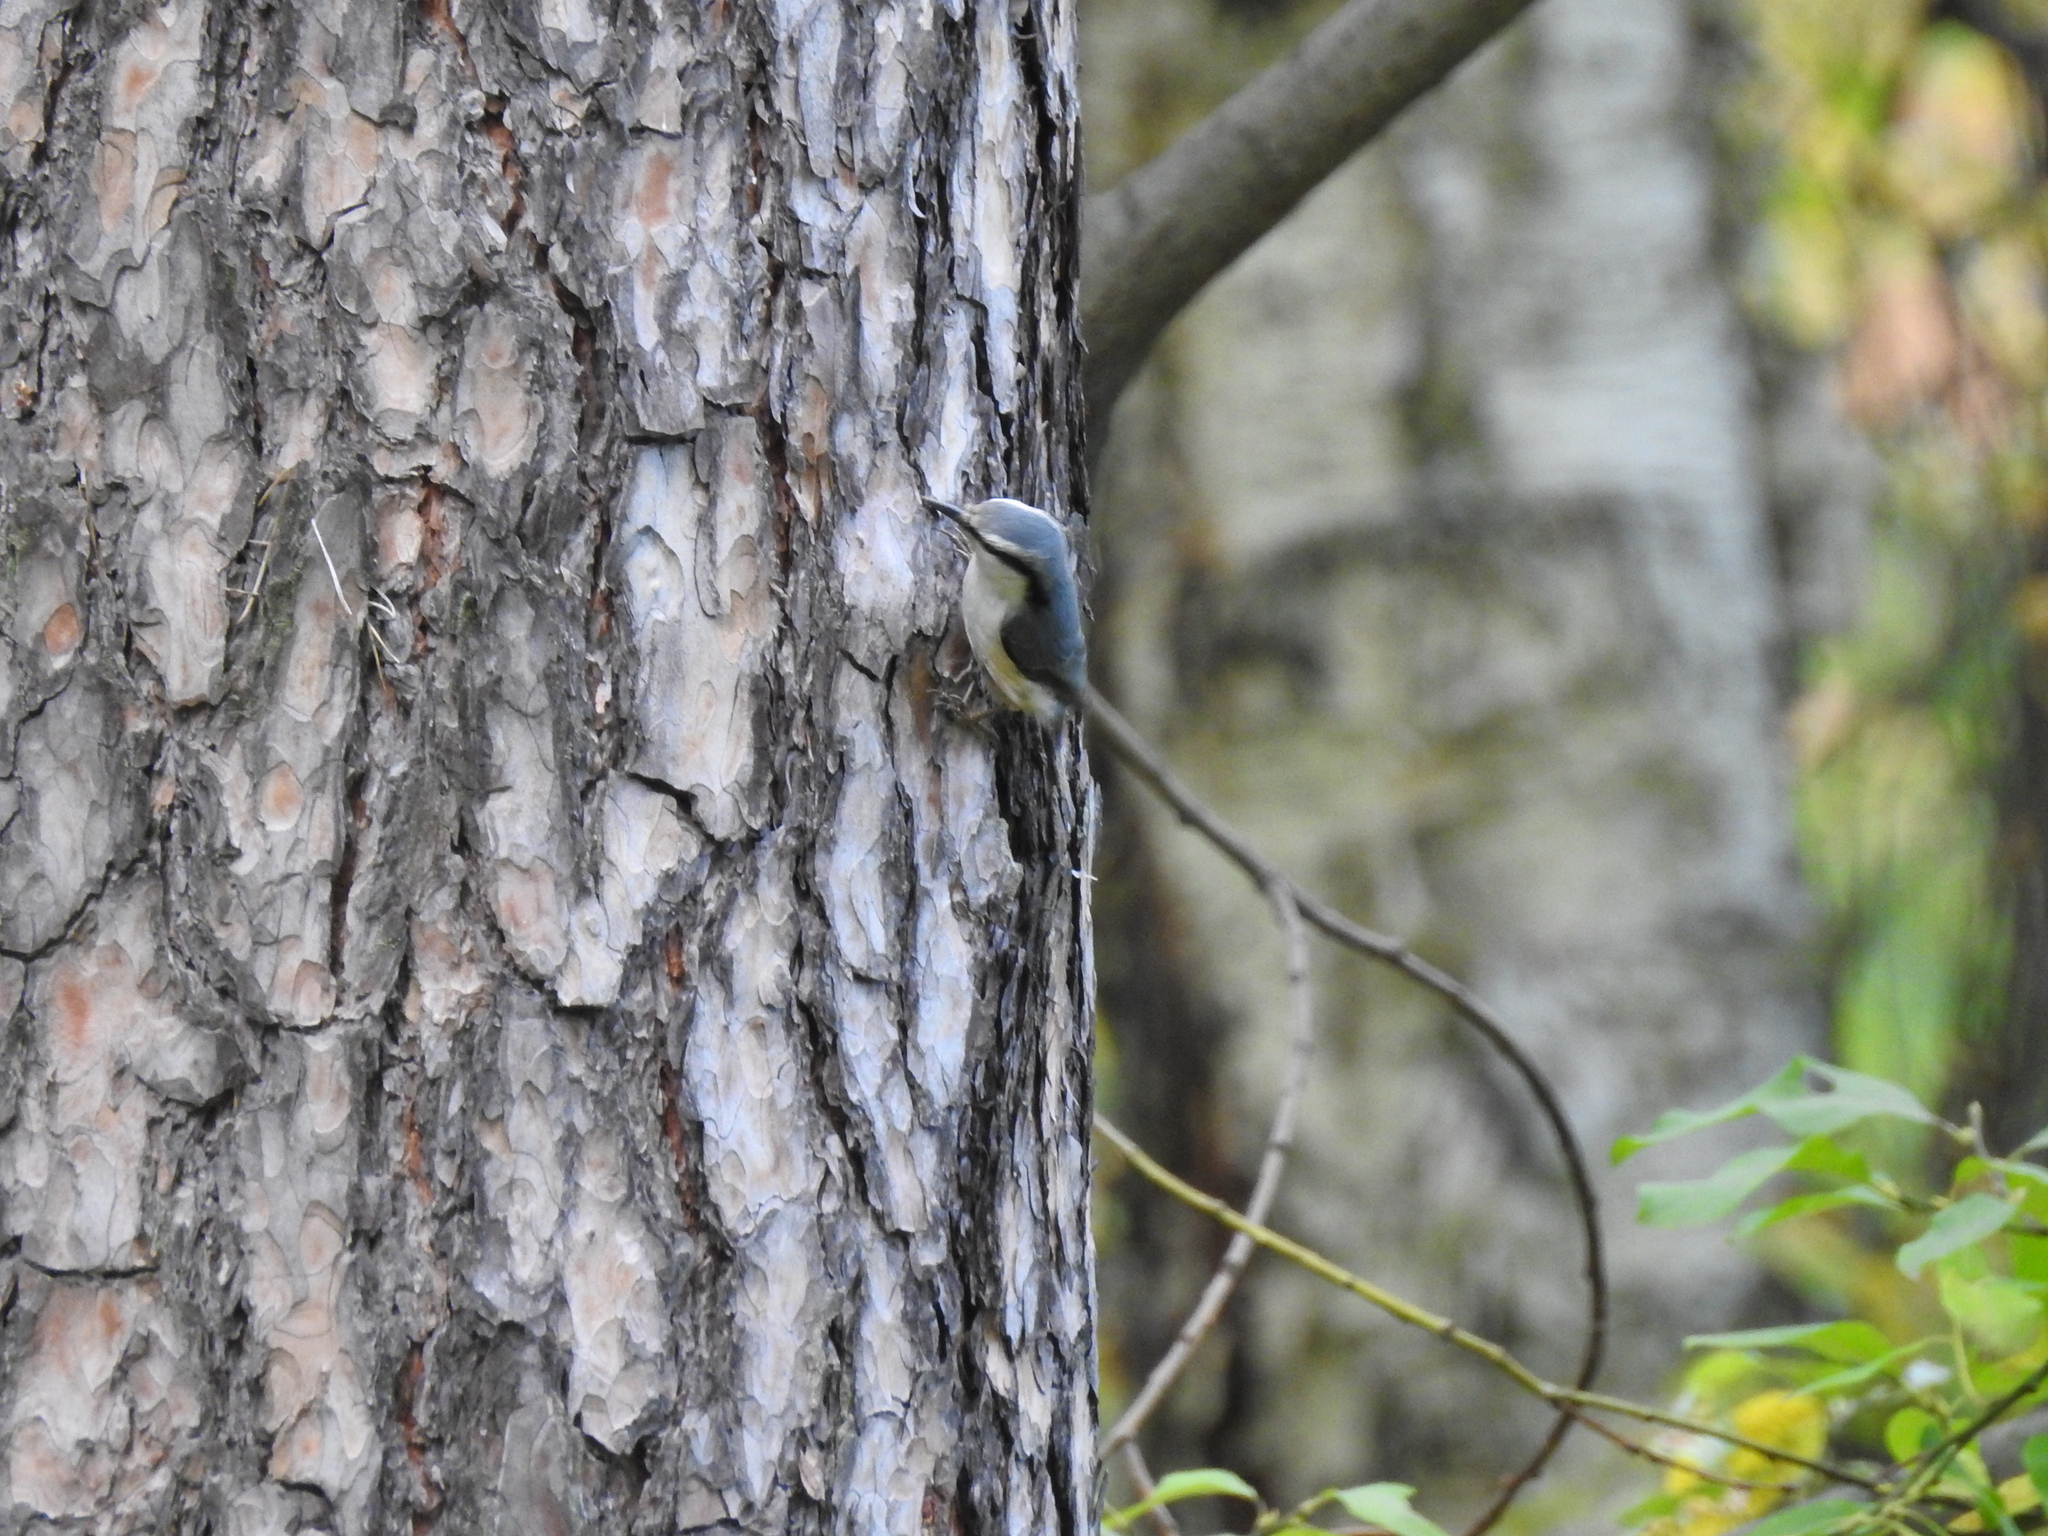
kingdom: Animalia
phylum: Chordata
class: Aves
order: Passeriformes
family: Sittidae
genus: Sitta
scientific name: Sitta europaea
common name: Eurasian nuthatch
